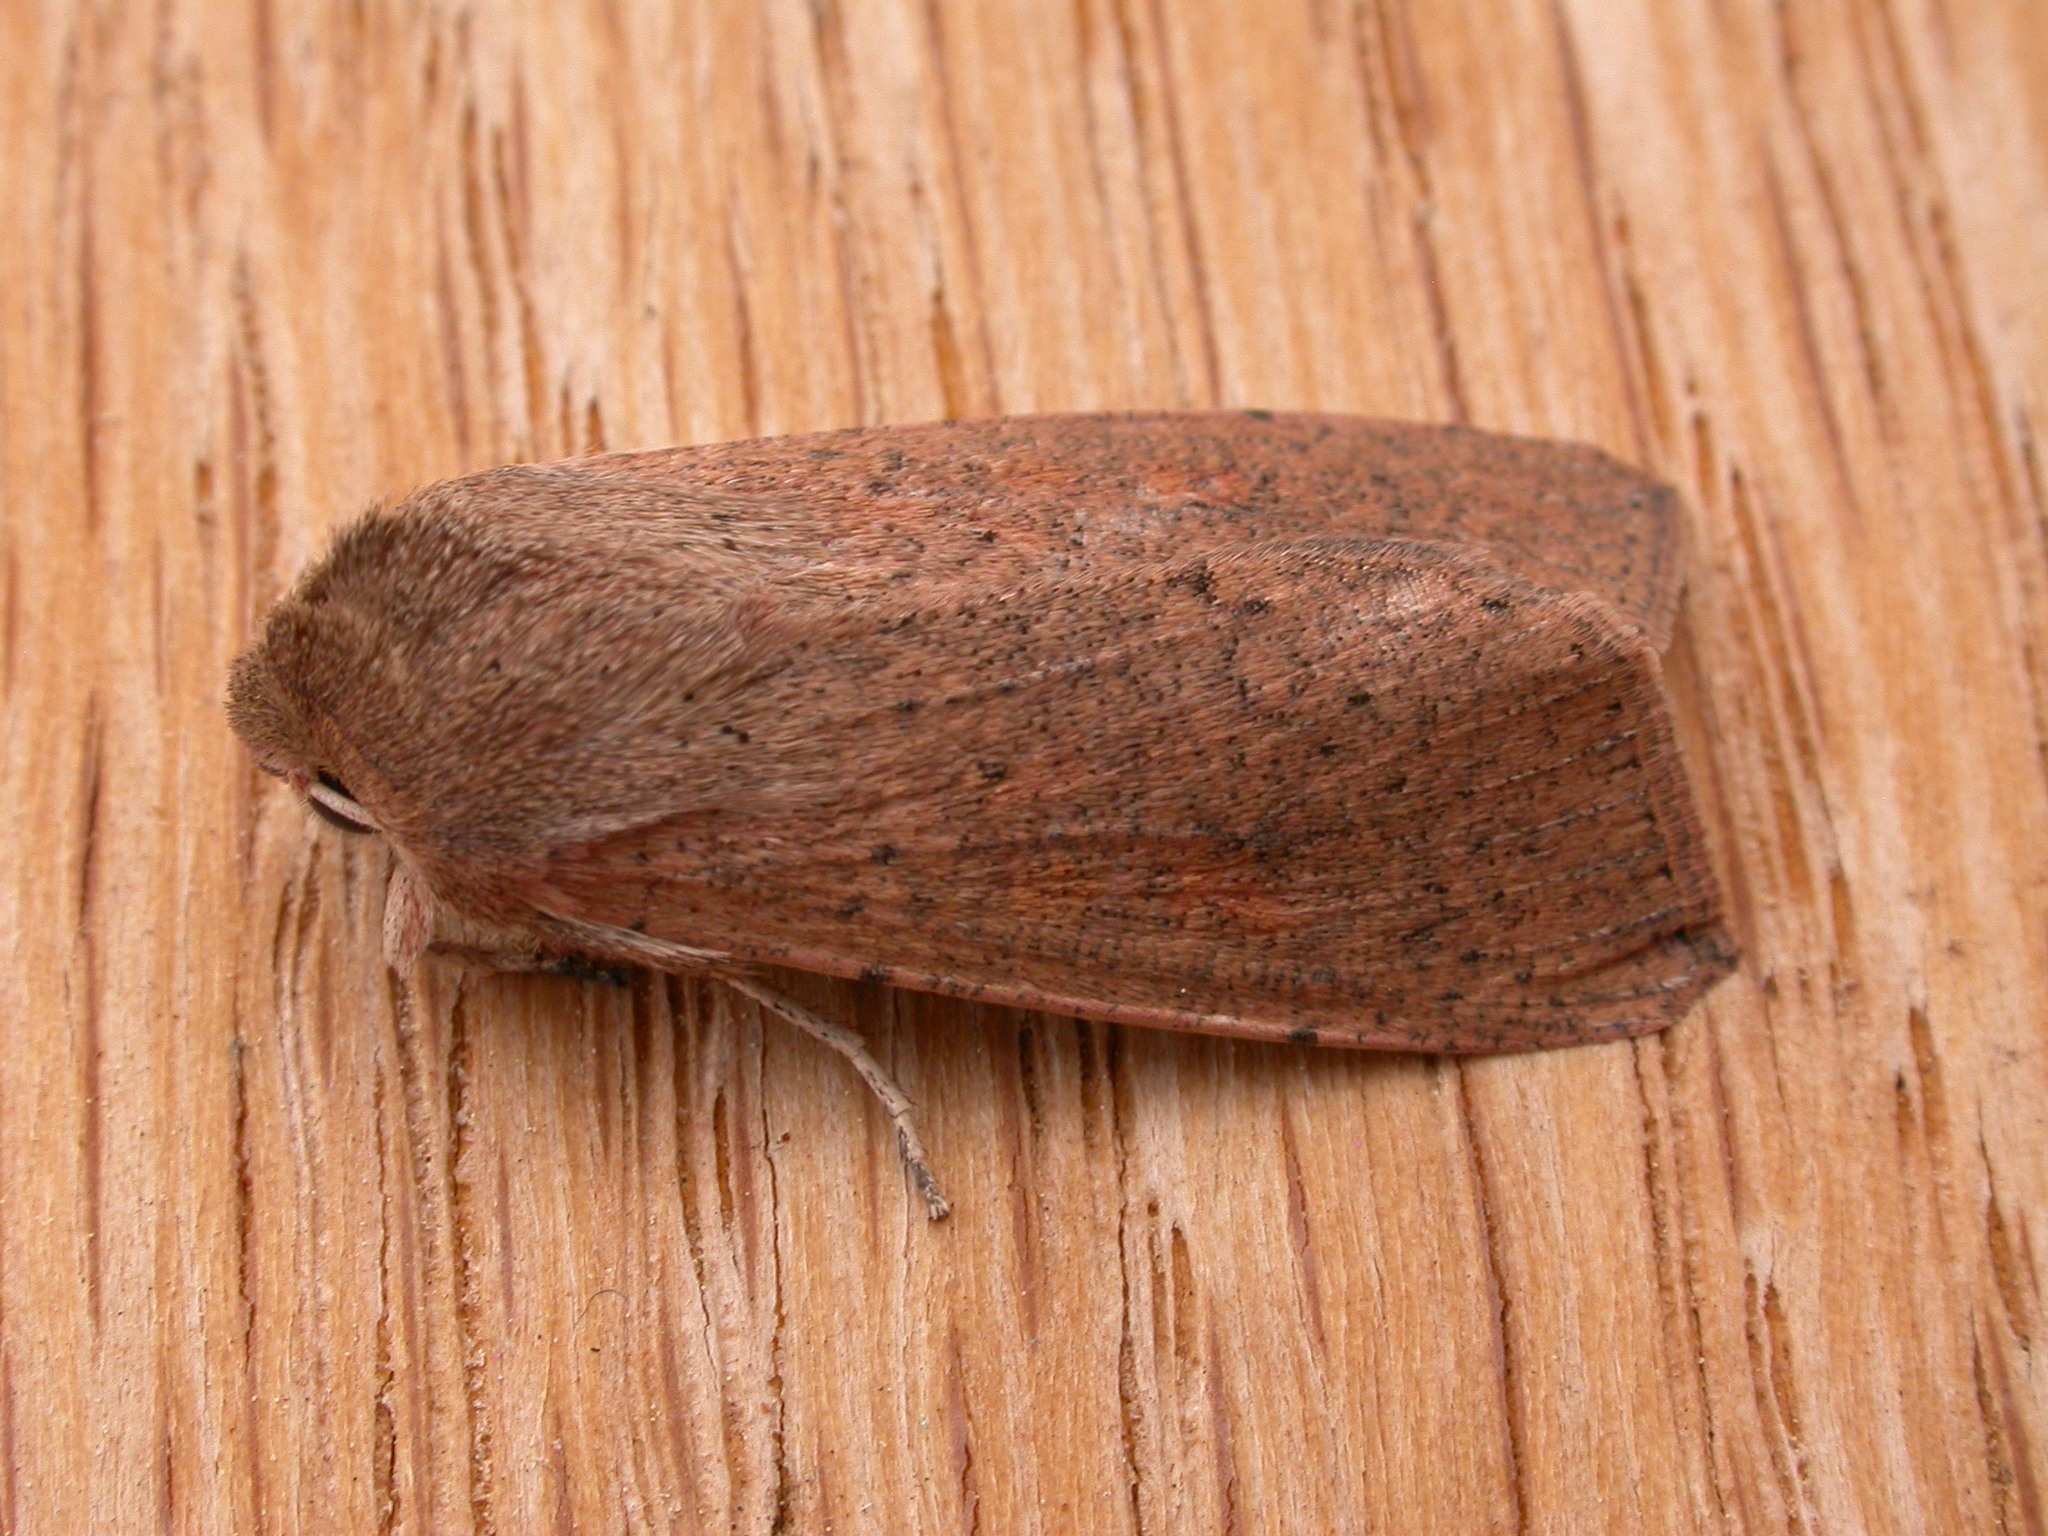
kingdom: Animalia
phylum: Arthropoda
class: Insecta
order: Lepidoptera
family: Noctuidae
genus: Mythimna
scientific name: Mythimna convecta
